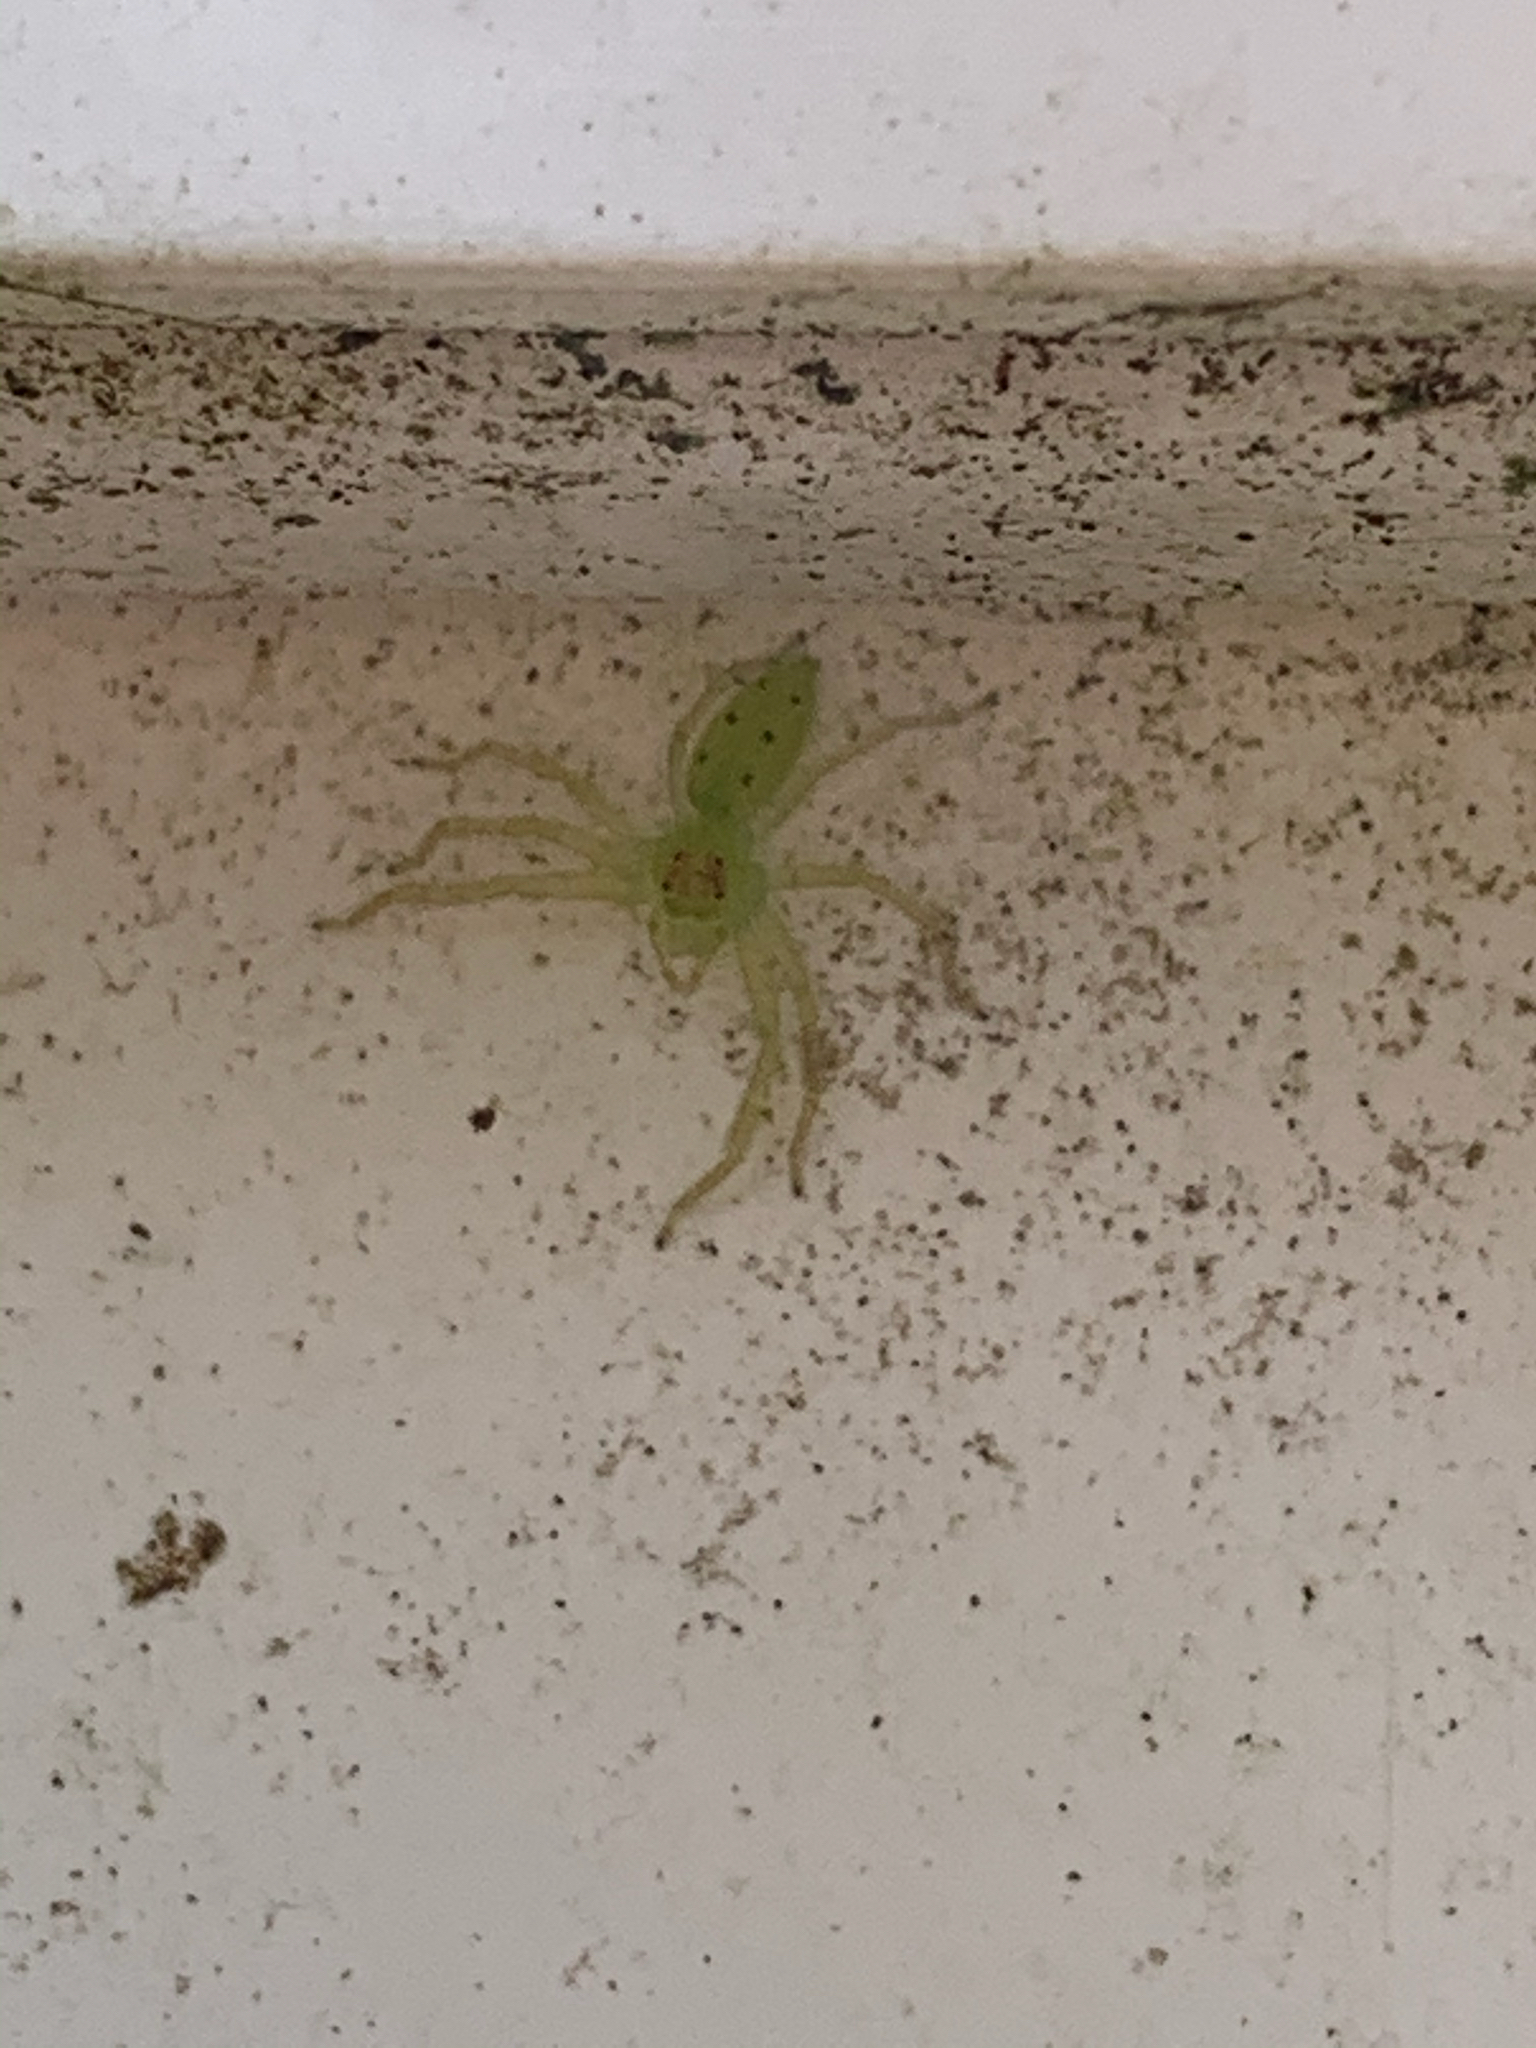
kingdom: Animalia
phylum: Arthropoda
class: Arachnida
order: Araneae
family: Salticidae
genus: Lyssomanes
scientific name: Lyssomanes viridis
